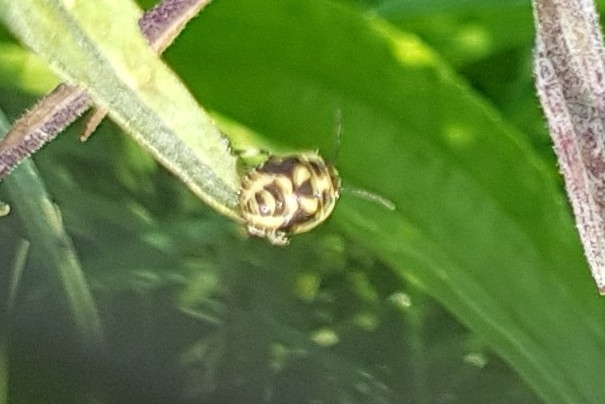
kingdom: Animalia
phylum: Arthropoda
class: Insecta
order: Hemiptera
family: Pentatomidae
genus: Eurydema
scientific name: Eurydema oleracea
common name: Cabbage bug
